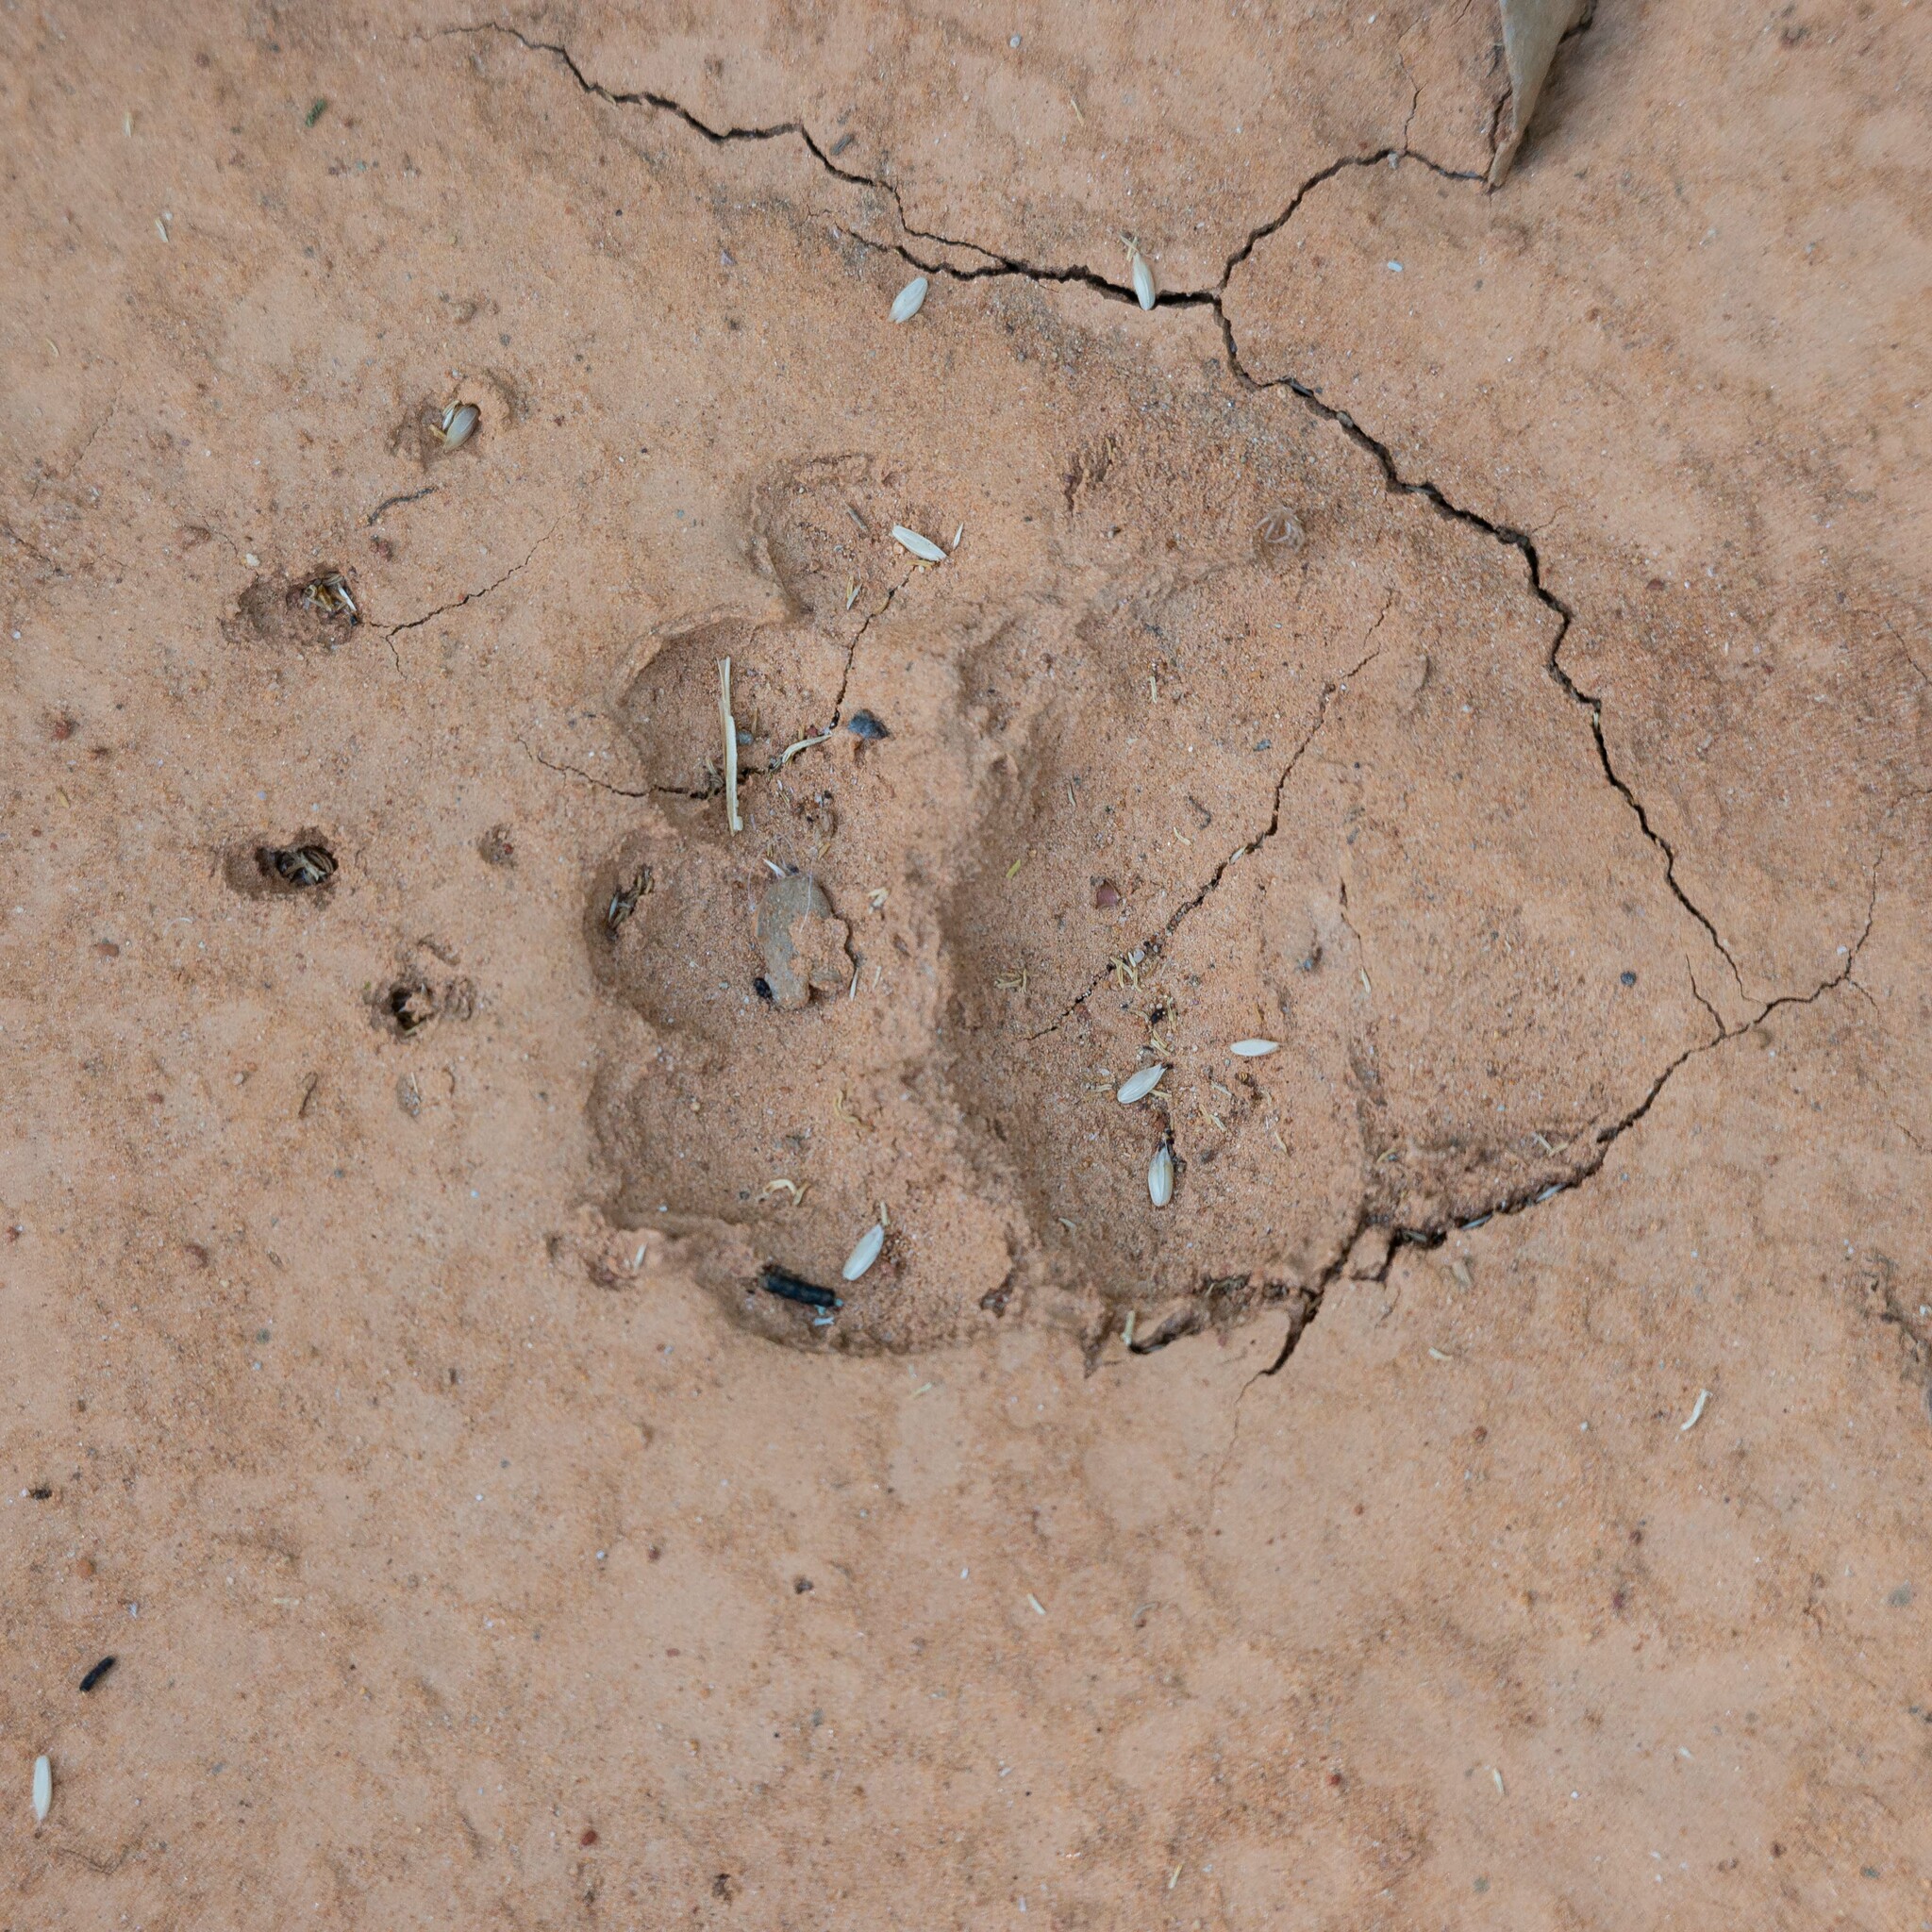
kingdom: Animalia
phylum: Chordata
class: Mammalia
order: Carnivora
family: Mustelidae
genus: Meles
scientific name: Meles meles
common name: Eurasian badger
